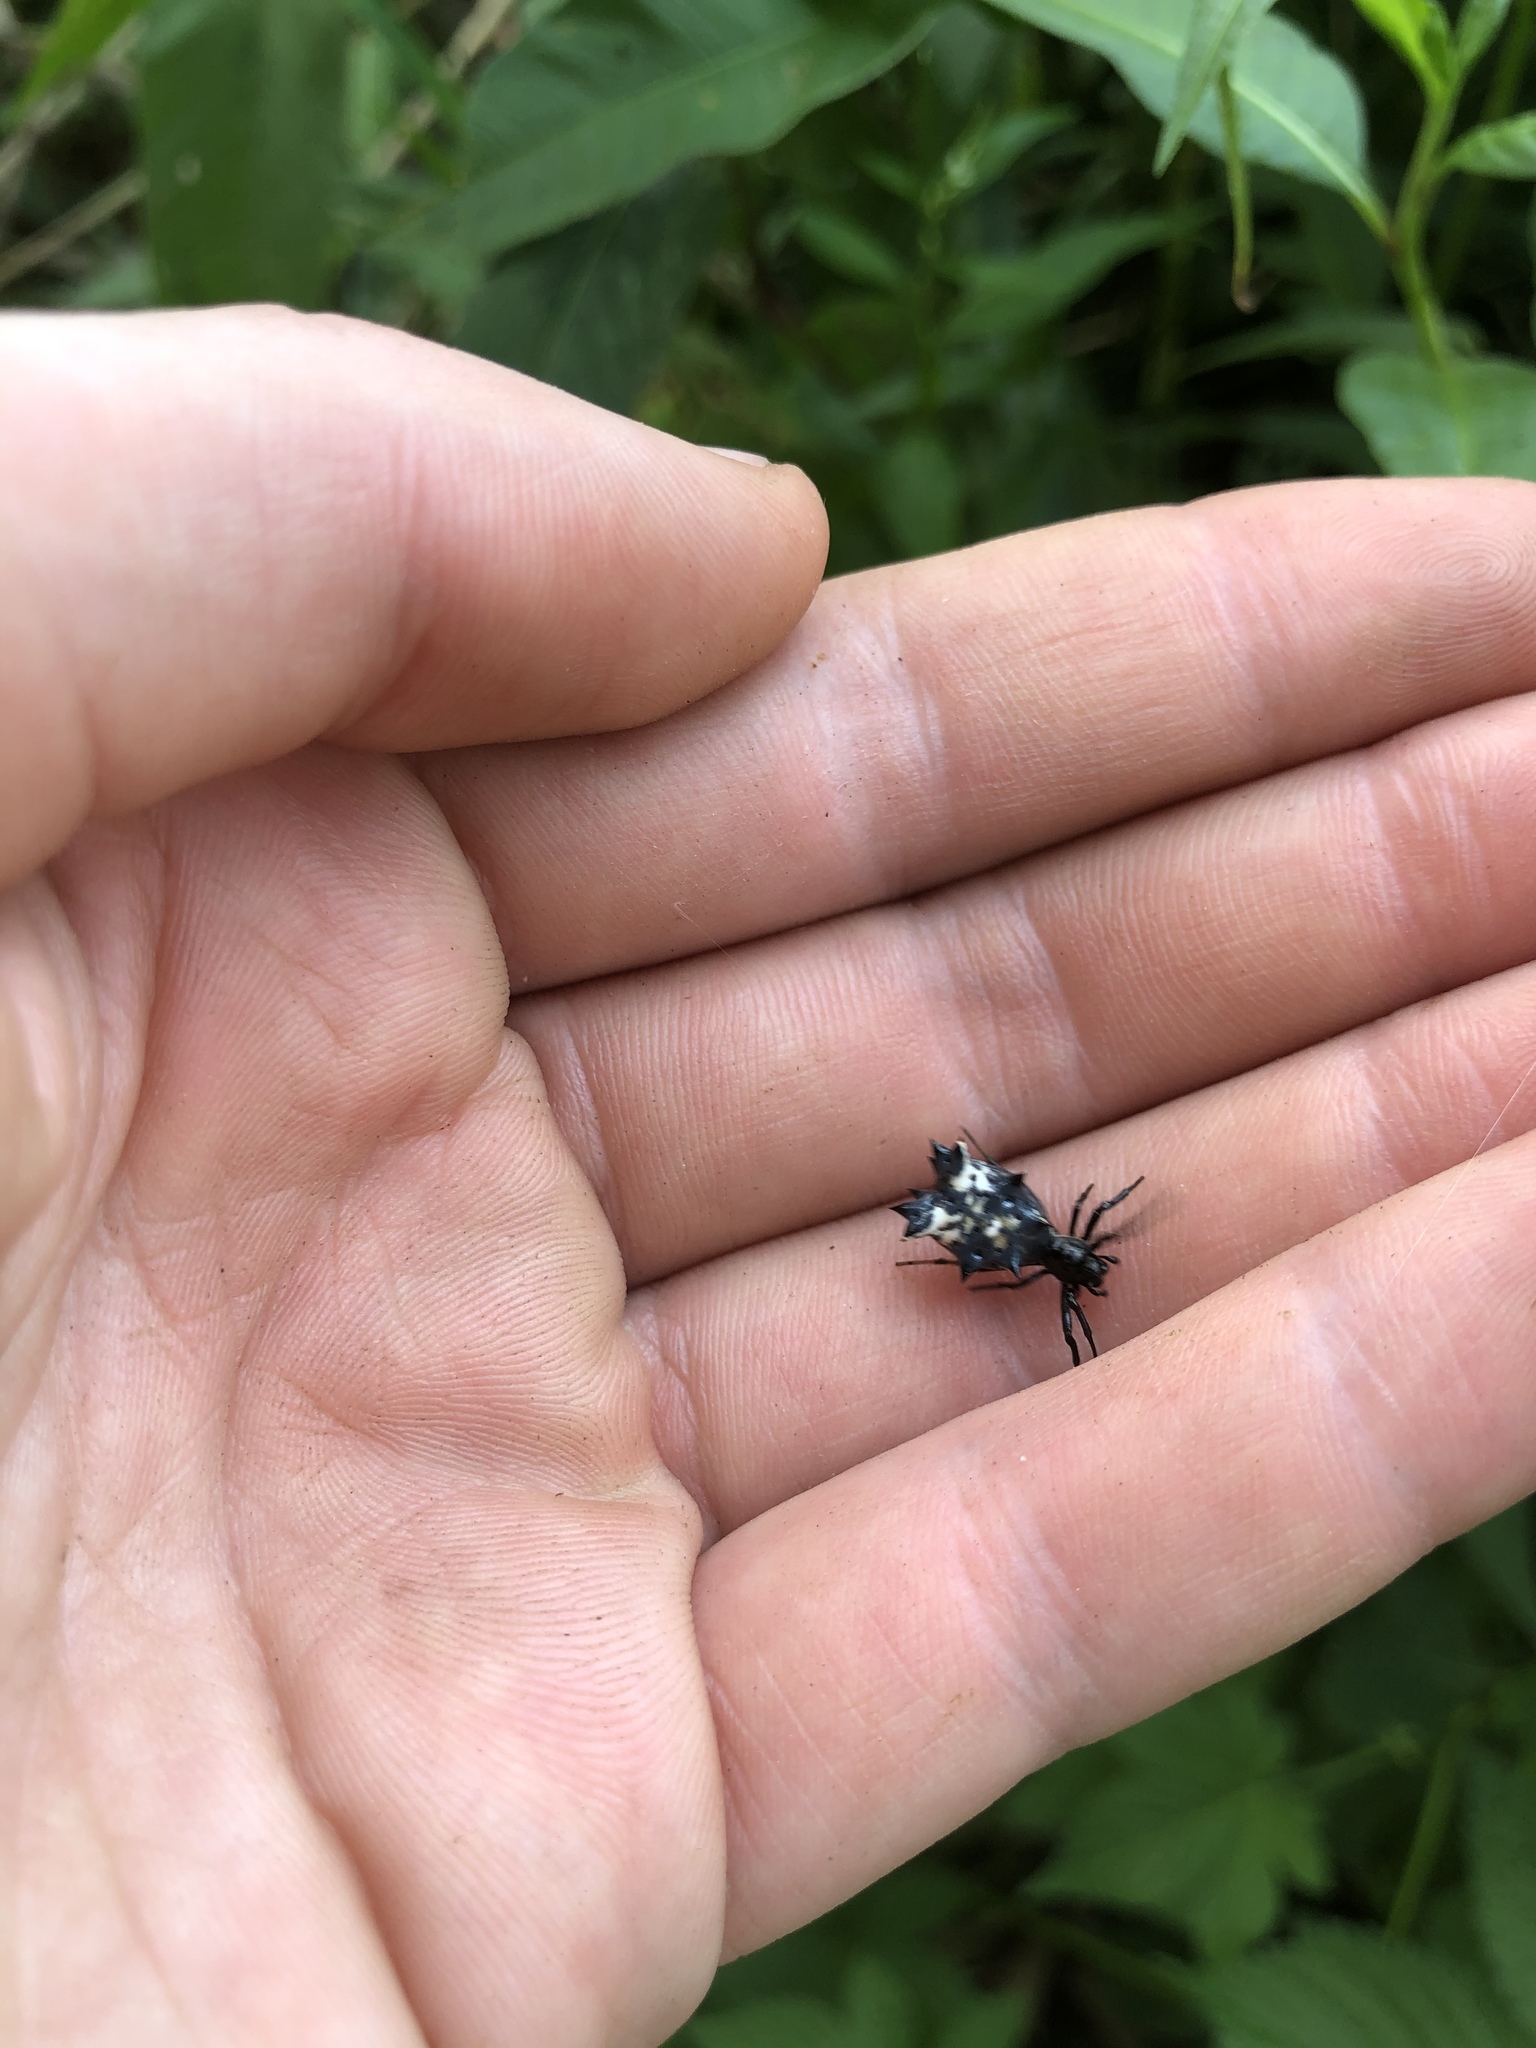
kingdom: Animalia
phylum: Arthropoda
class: Arachnida
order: Araneae
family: Araneidae
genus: Micrathena
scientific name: Micrathena gracilis
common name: Orb weavers
